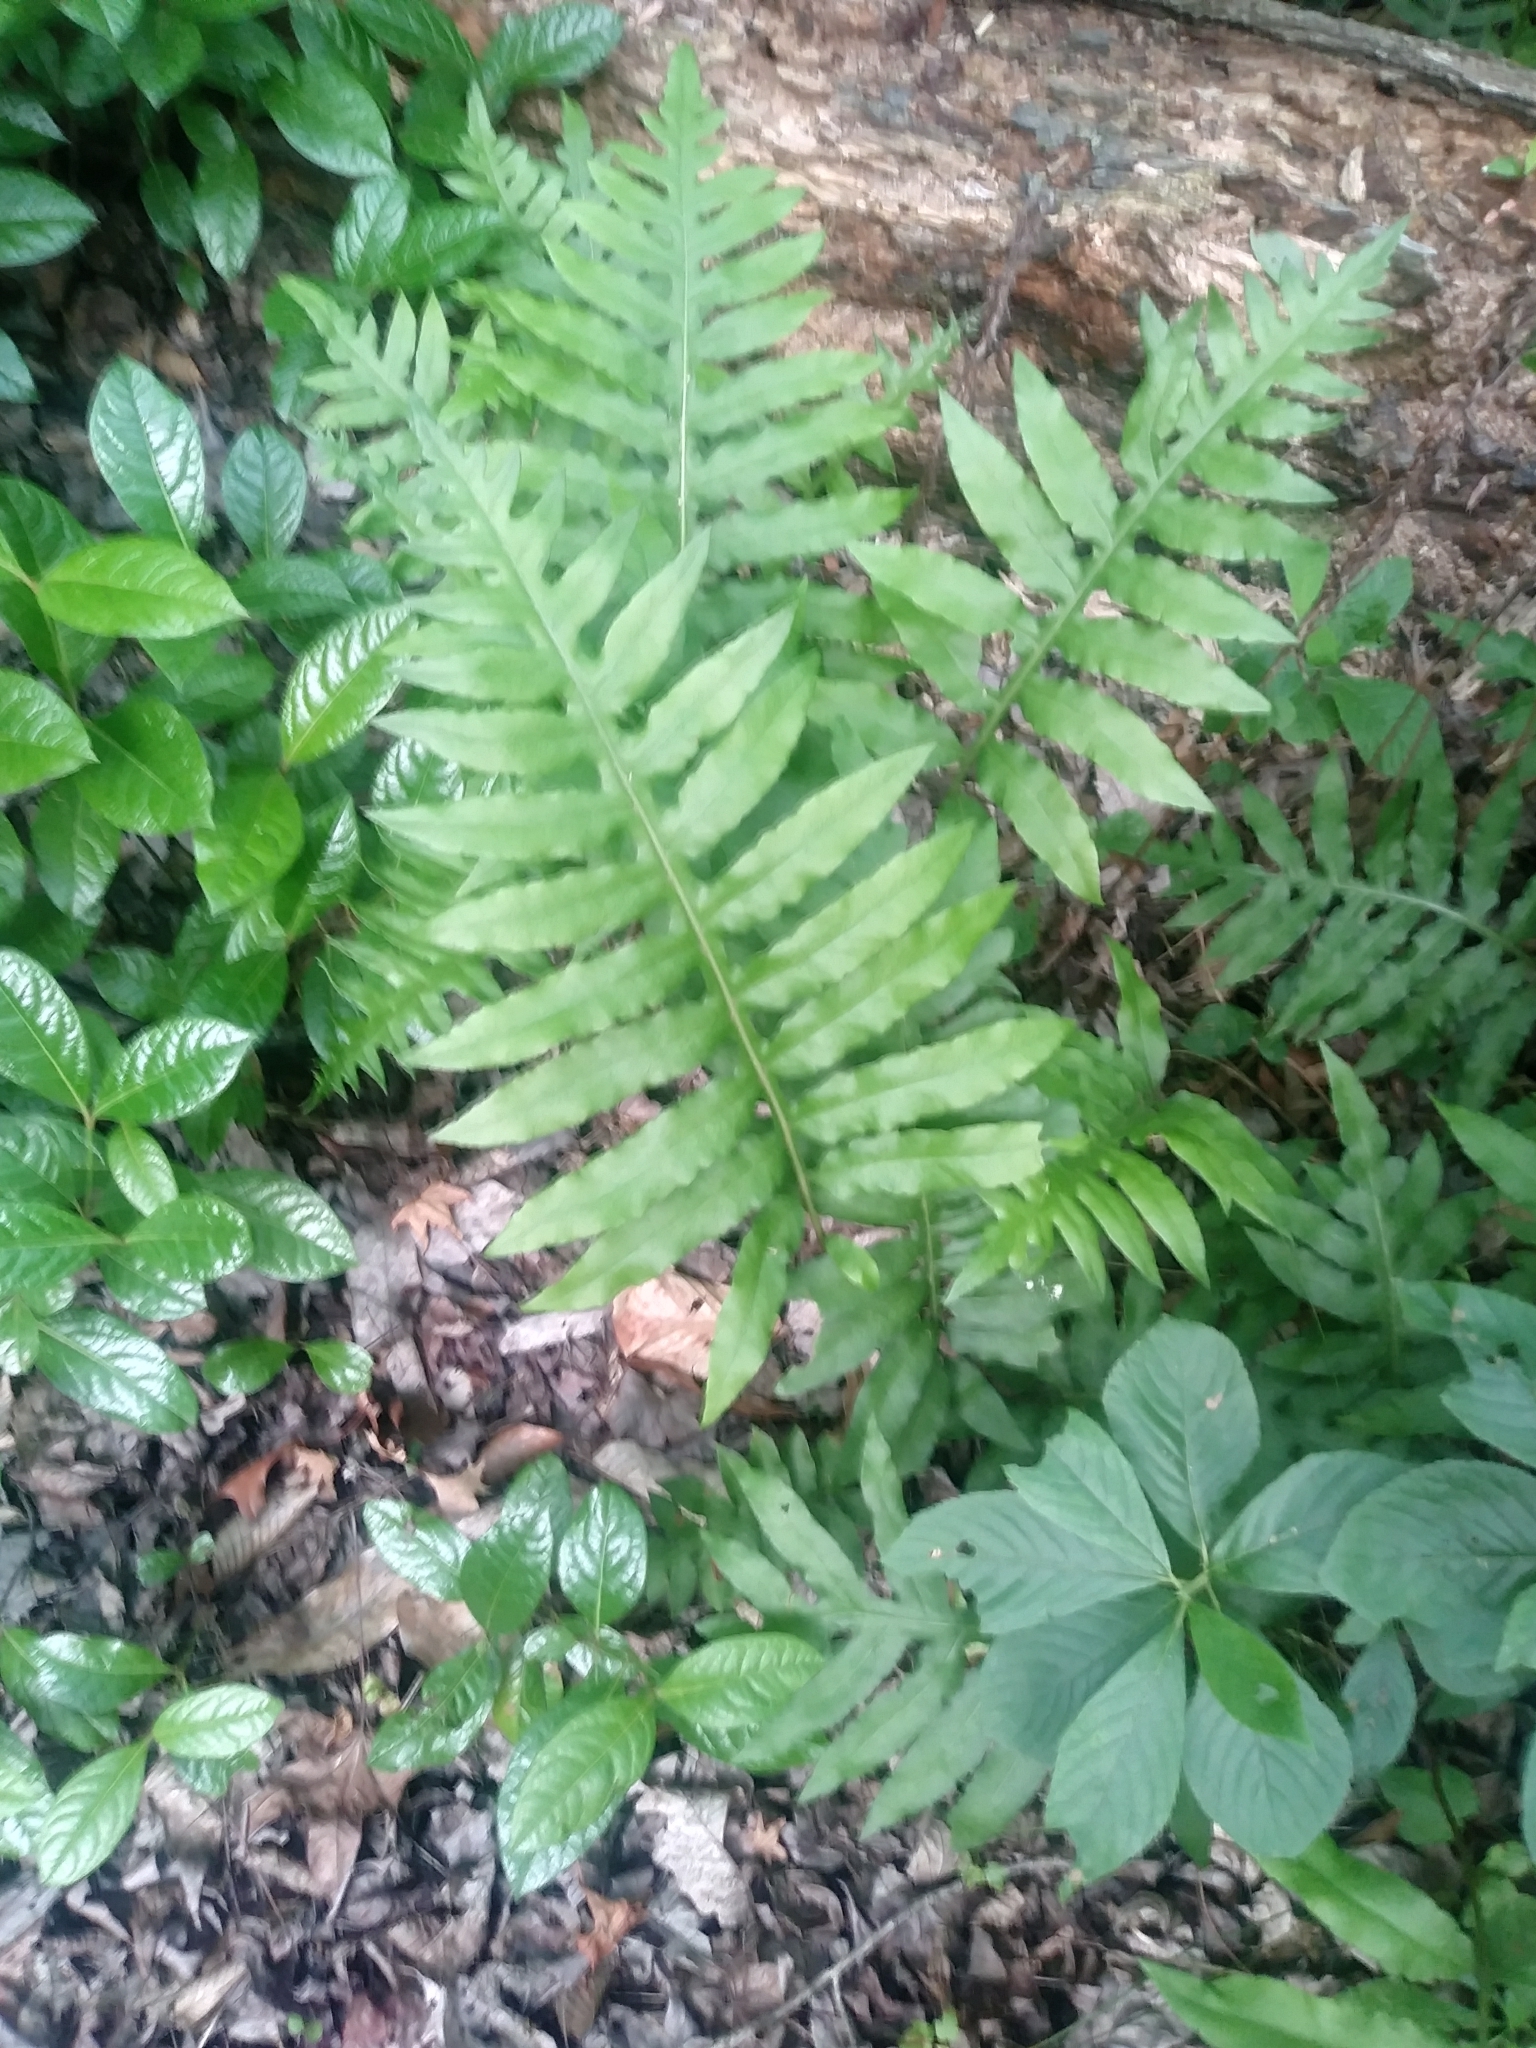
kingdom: Plantae
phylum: Tracheophyta
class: Polypodiopsida
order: Polypodiales
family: Blechnaceae
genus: Lorinseria
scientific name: Lorinseria areolata
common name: Dwarf chain fern
